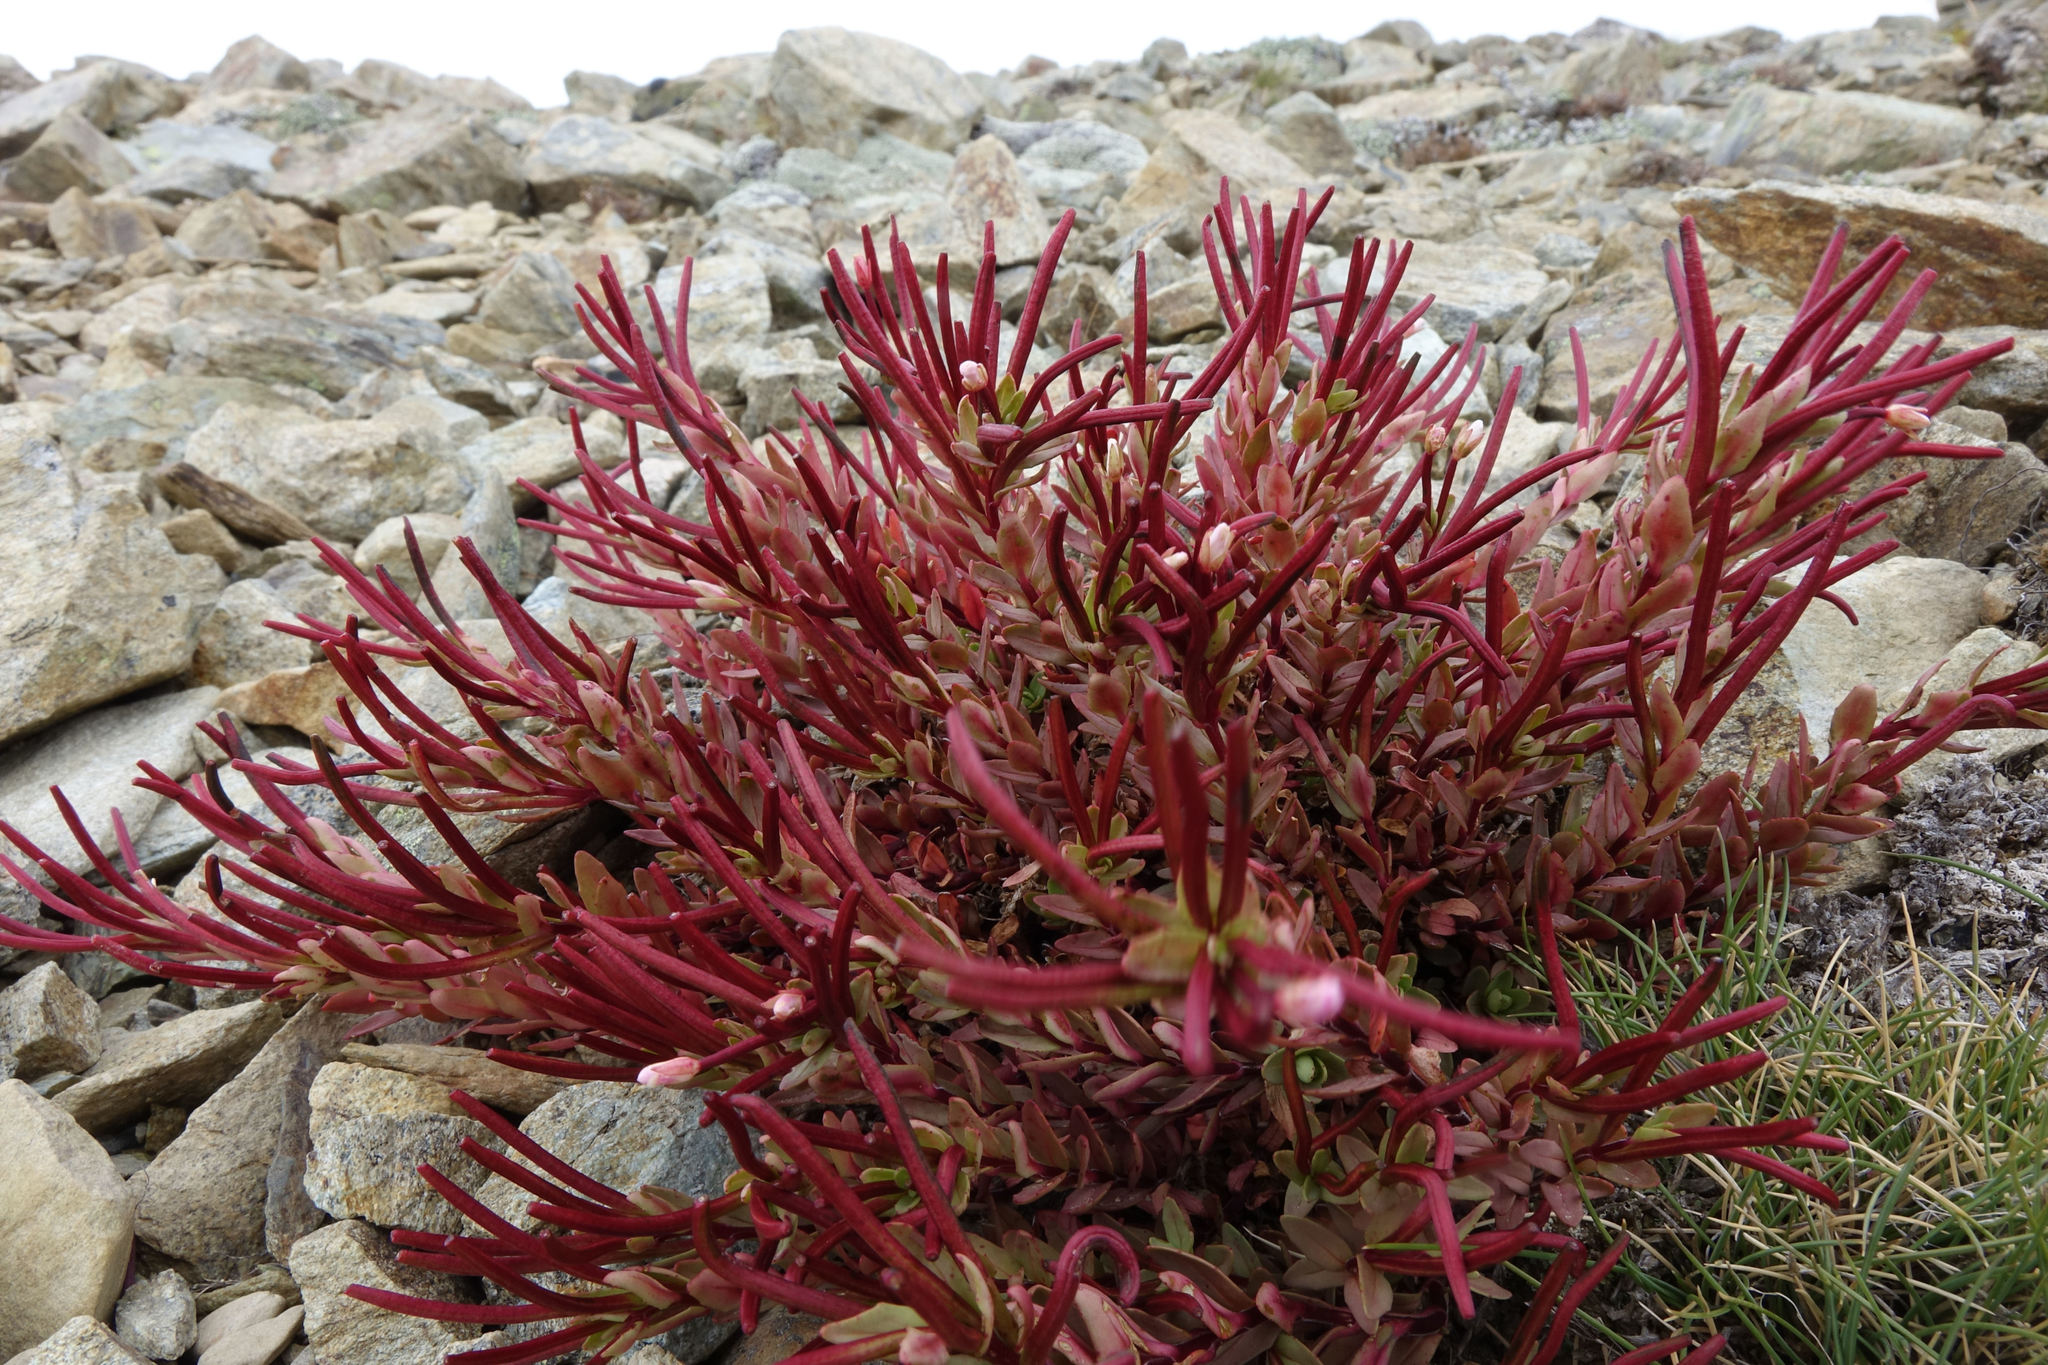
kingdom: Plantae
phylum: Tracheophyta
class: Magnoliopsida
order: Myrtales
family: Onagraceae
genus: Epilobium
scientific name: Epilobium porphyrium
